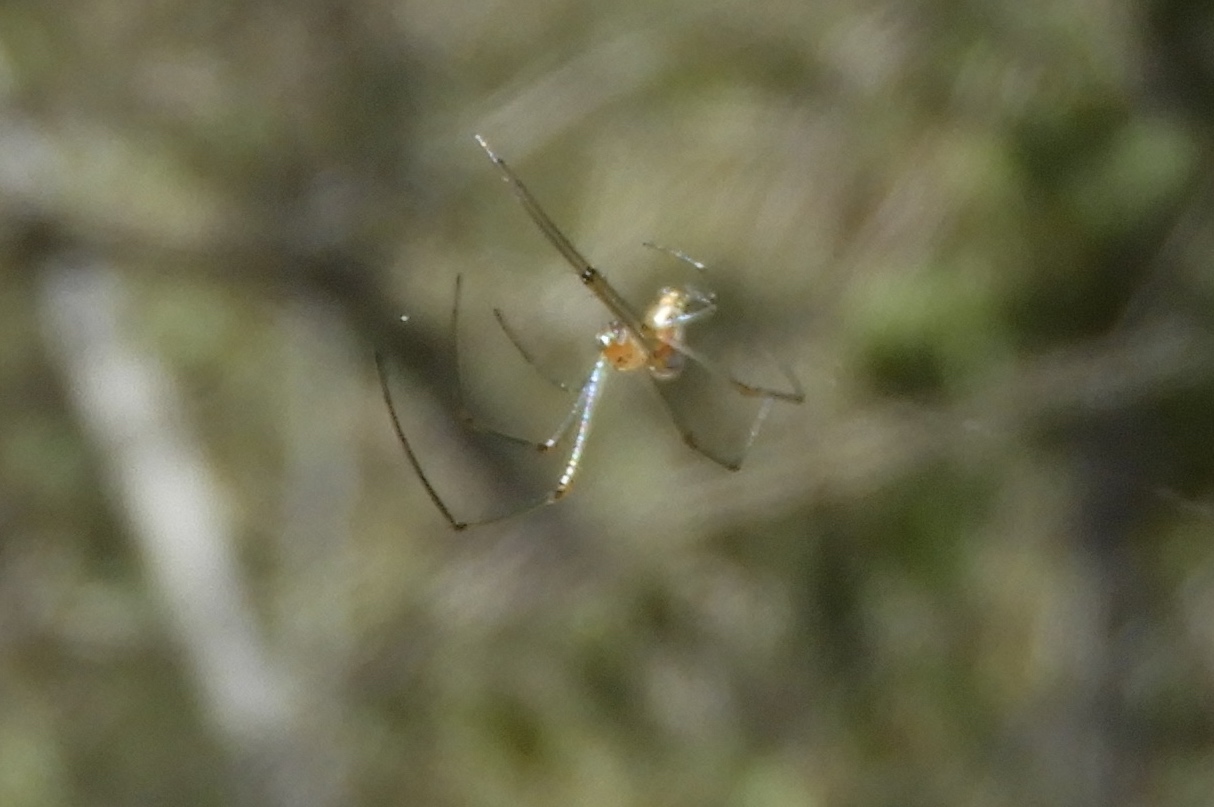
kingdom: Animalia
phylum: Arthropoda
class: Arachnida
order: Araneae
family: Tetragnathidae
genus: Leucauge
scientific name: Leucauge
